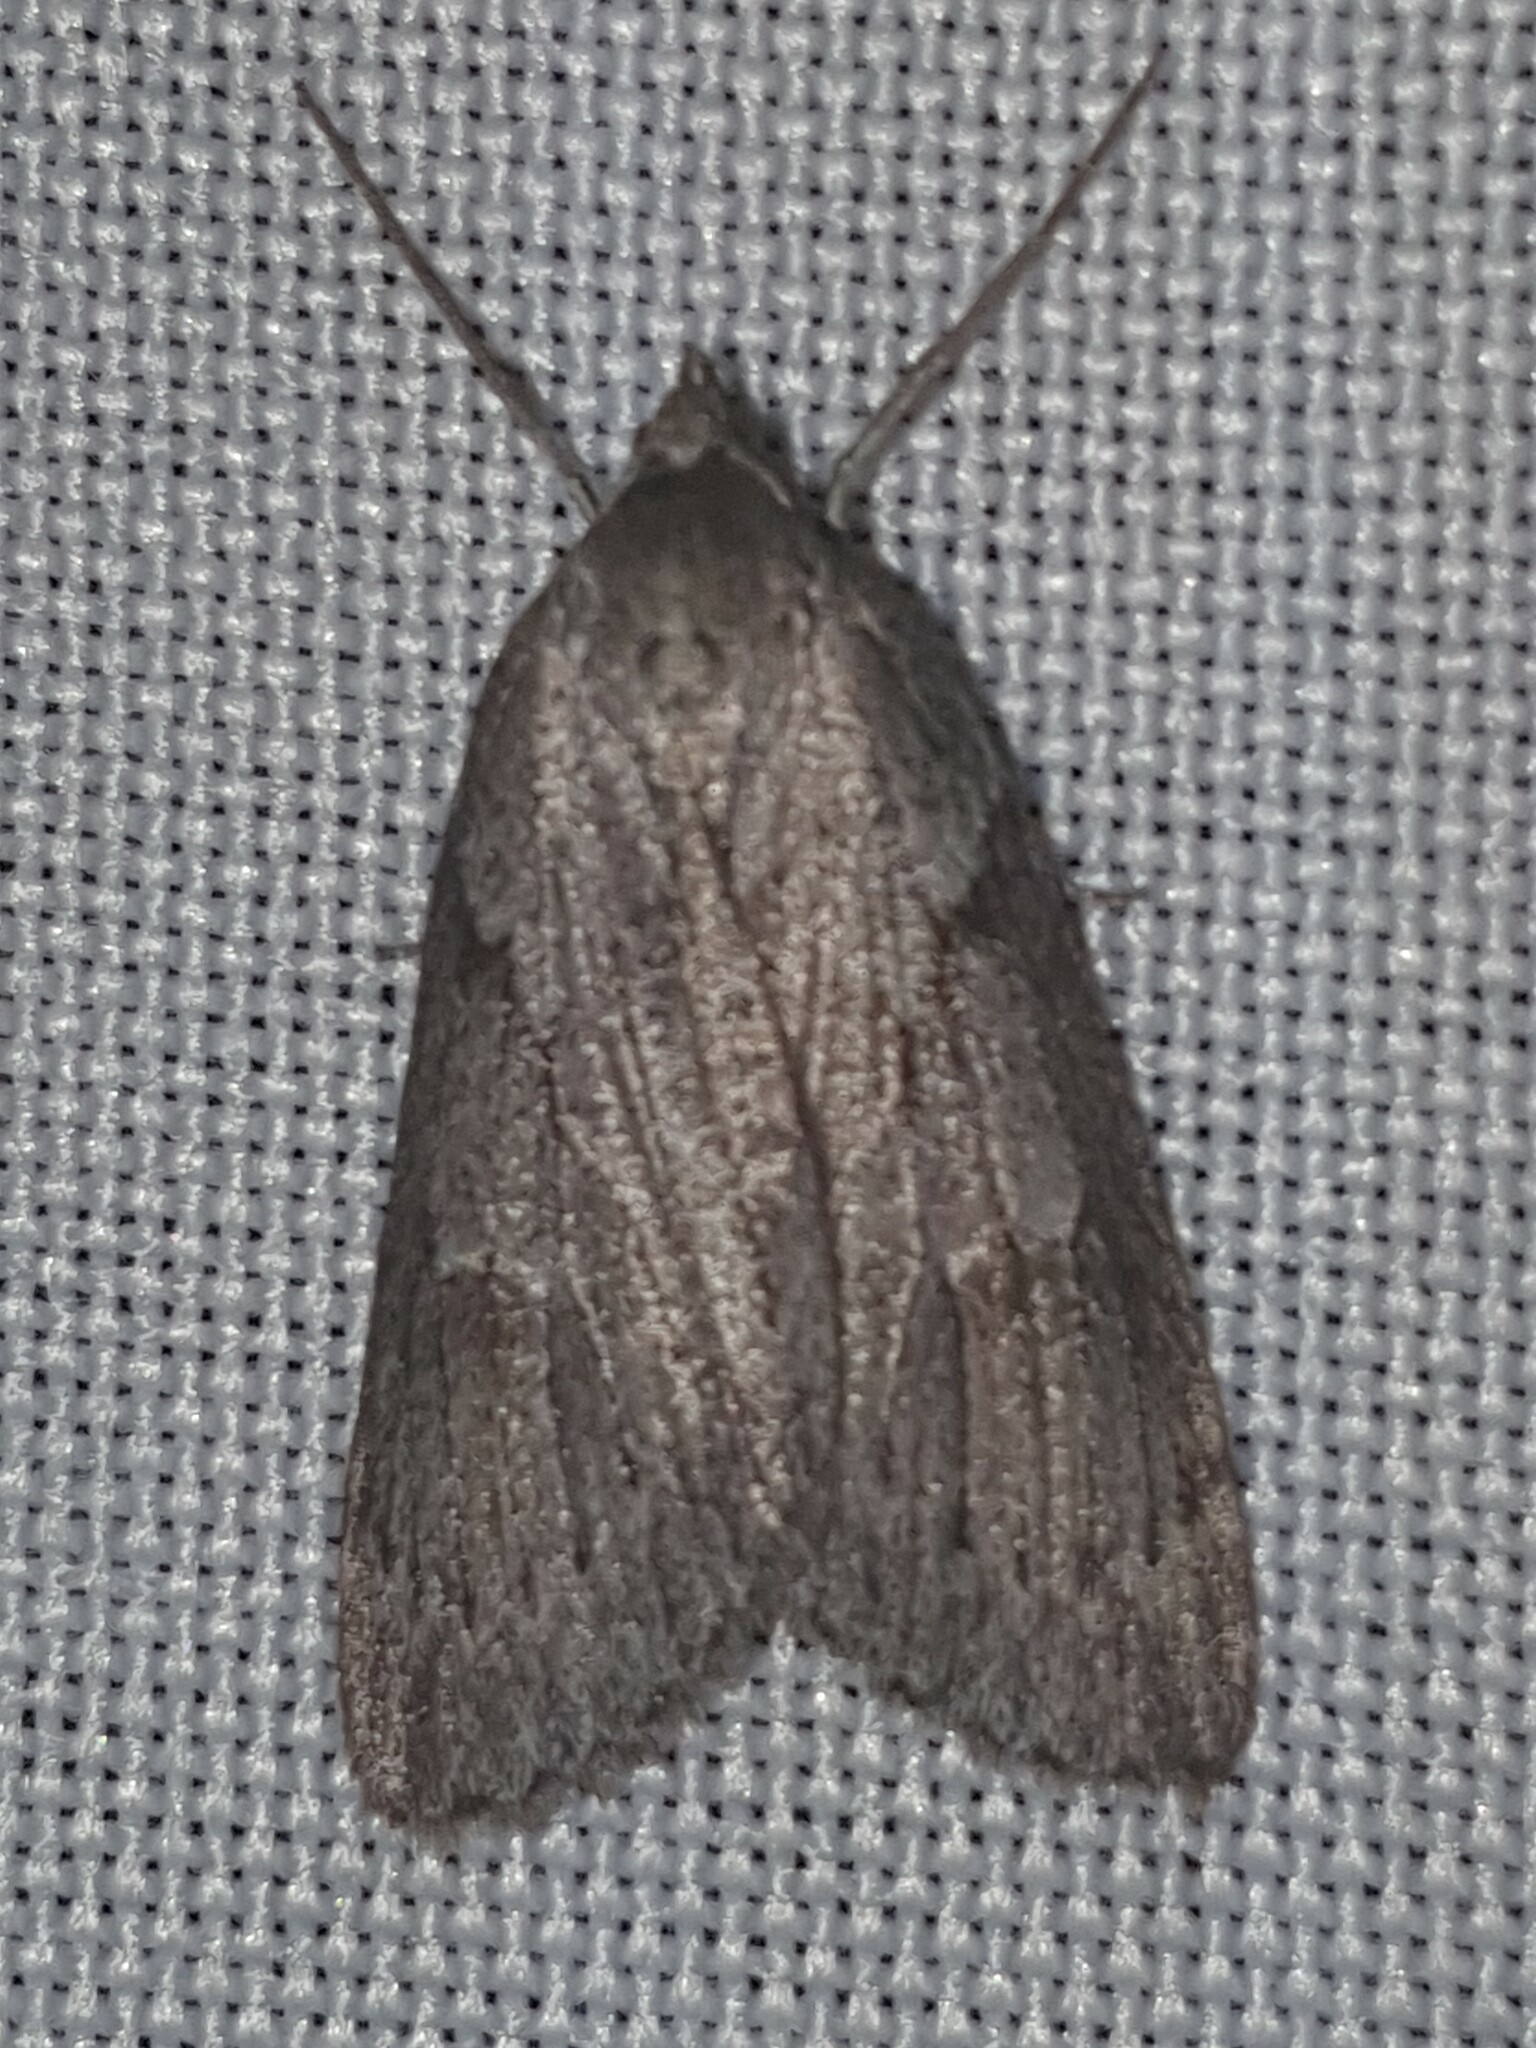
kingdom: Animalia
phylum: Arthropoda
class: Insecta
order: Lepidoptera
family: Geometridae
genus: Pachycnemia
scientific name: Pachycnemia hippocastanaria
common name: Horse chestnut
